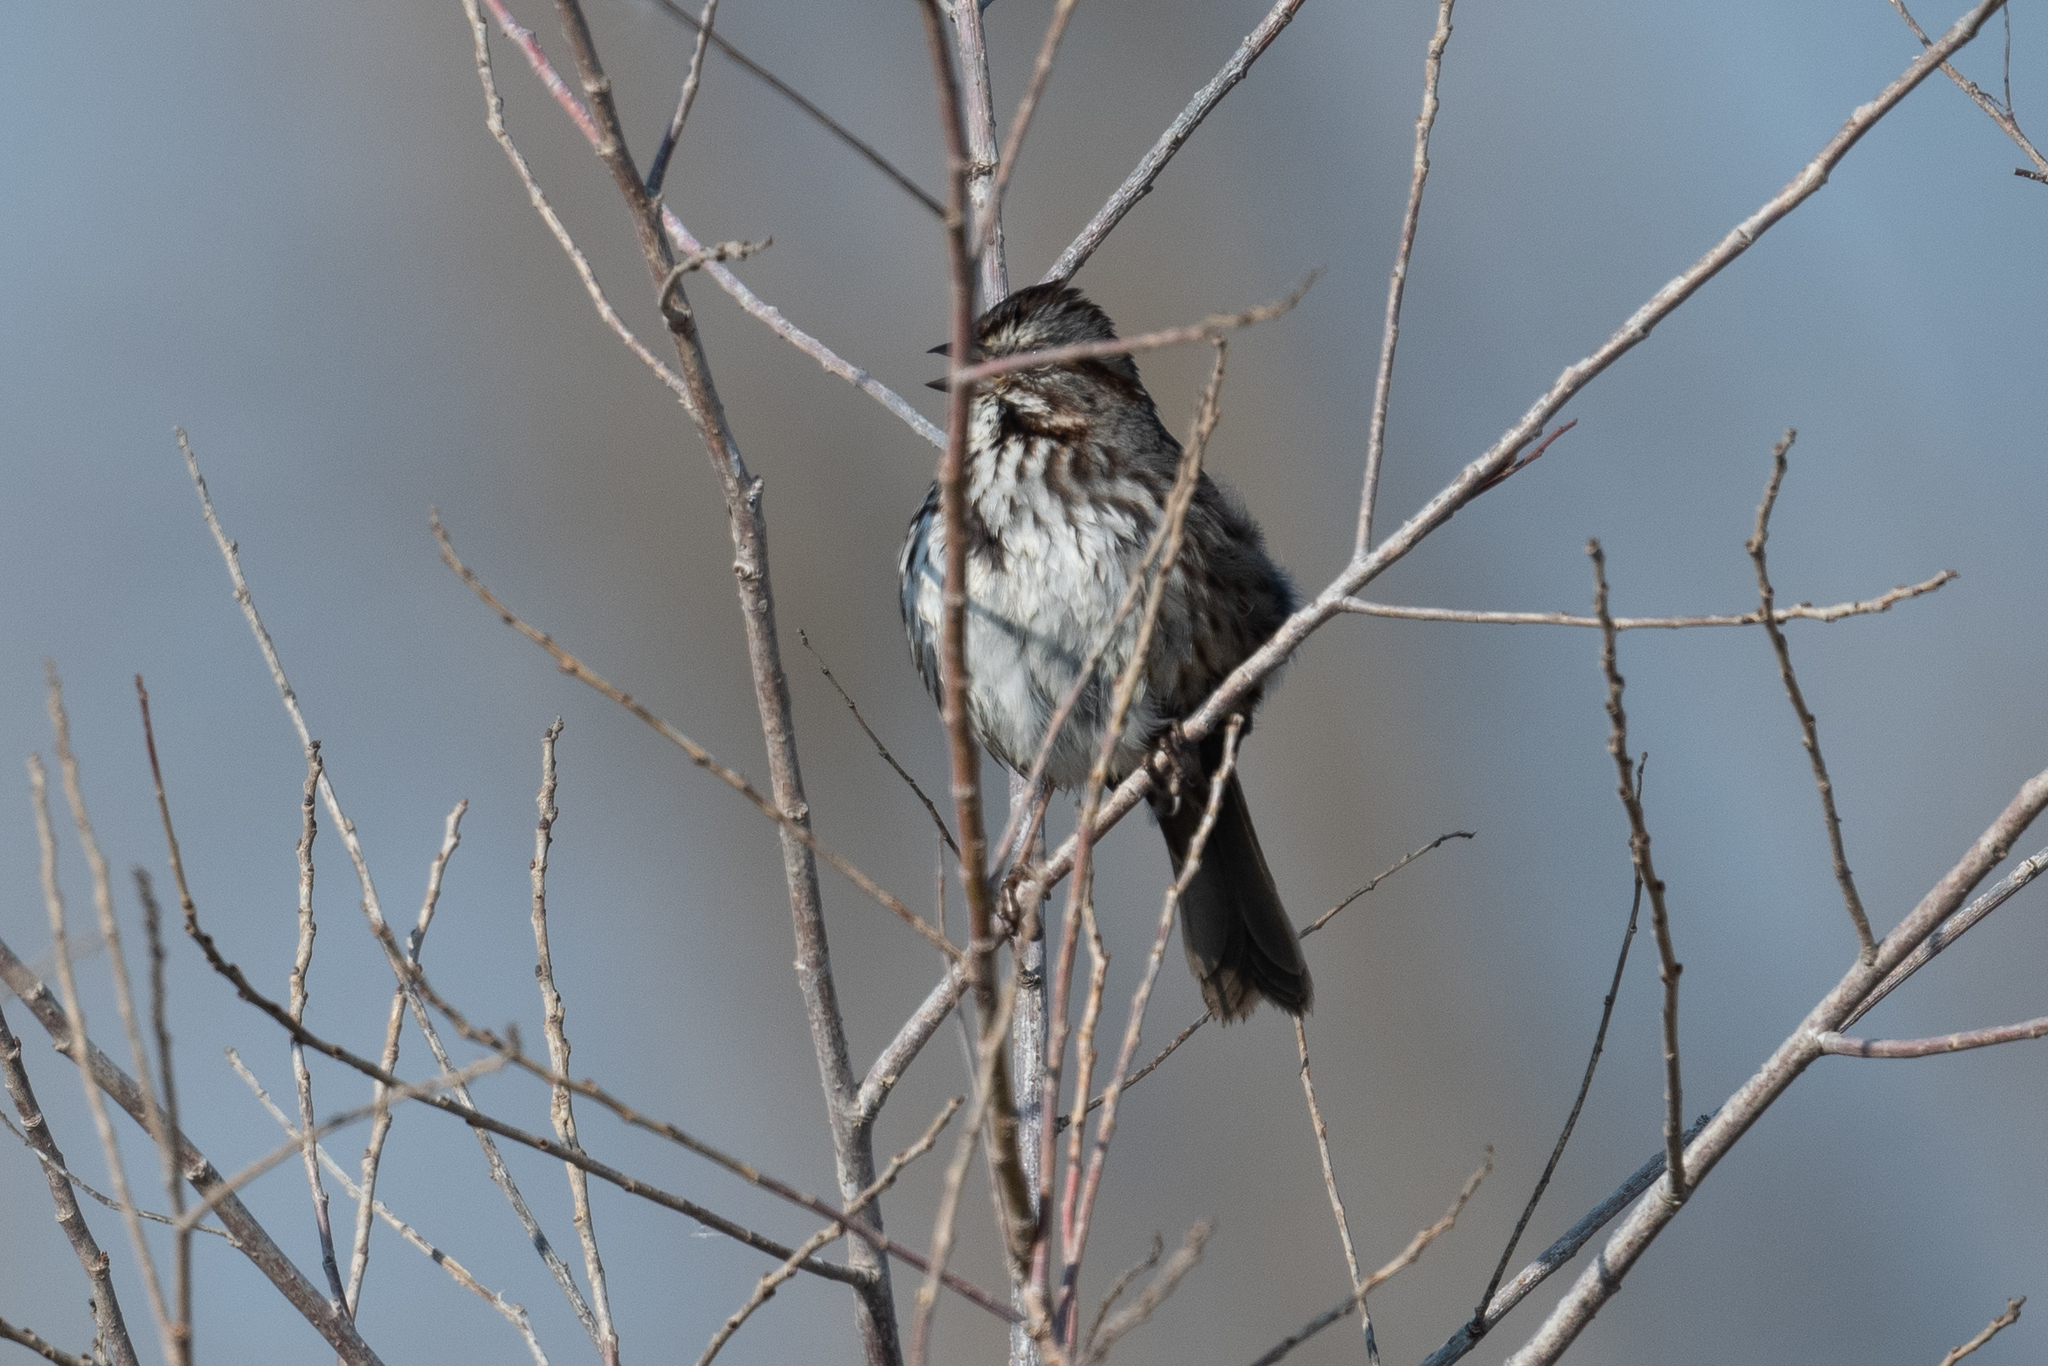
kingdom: Animalia
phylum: Chordata
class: Aves
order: Passeriformes
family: Passerellidae
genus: Melospiza
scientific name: Melospiza melodia
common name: Song sparrow
